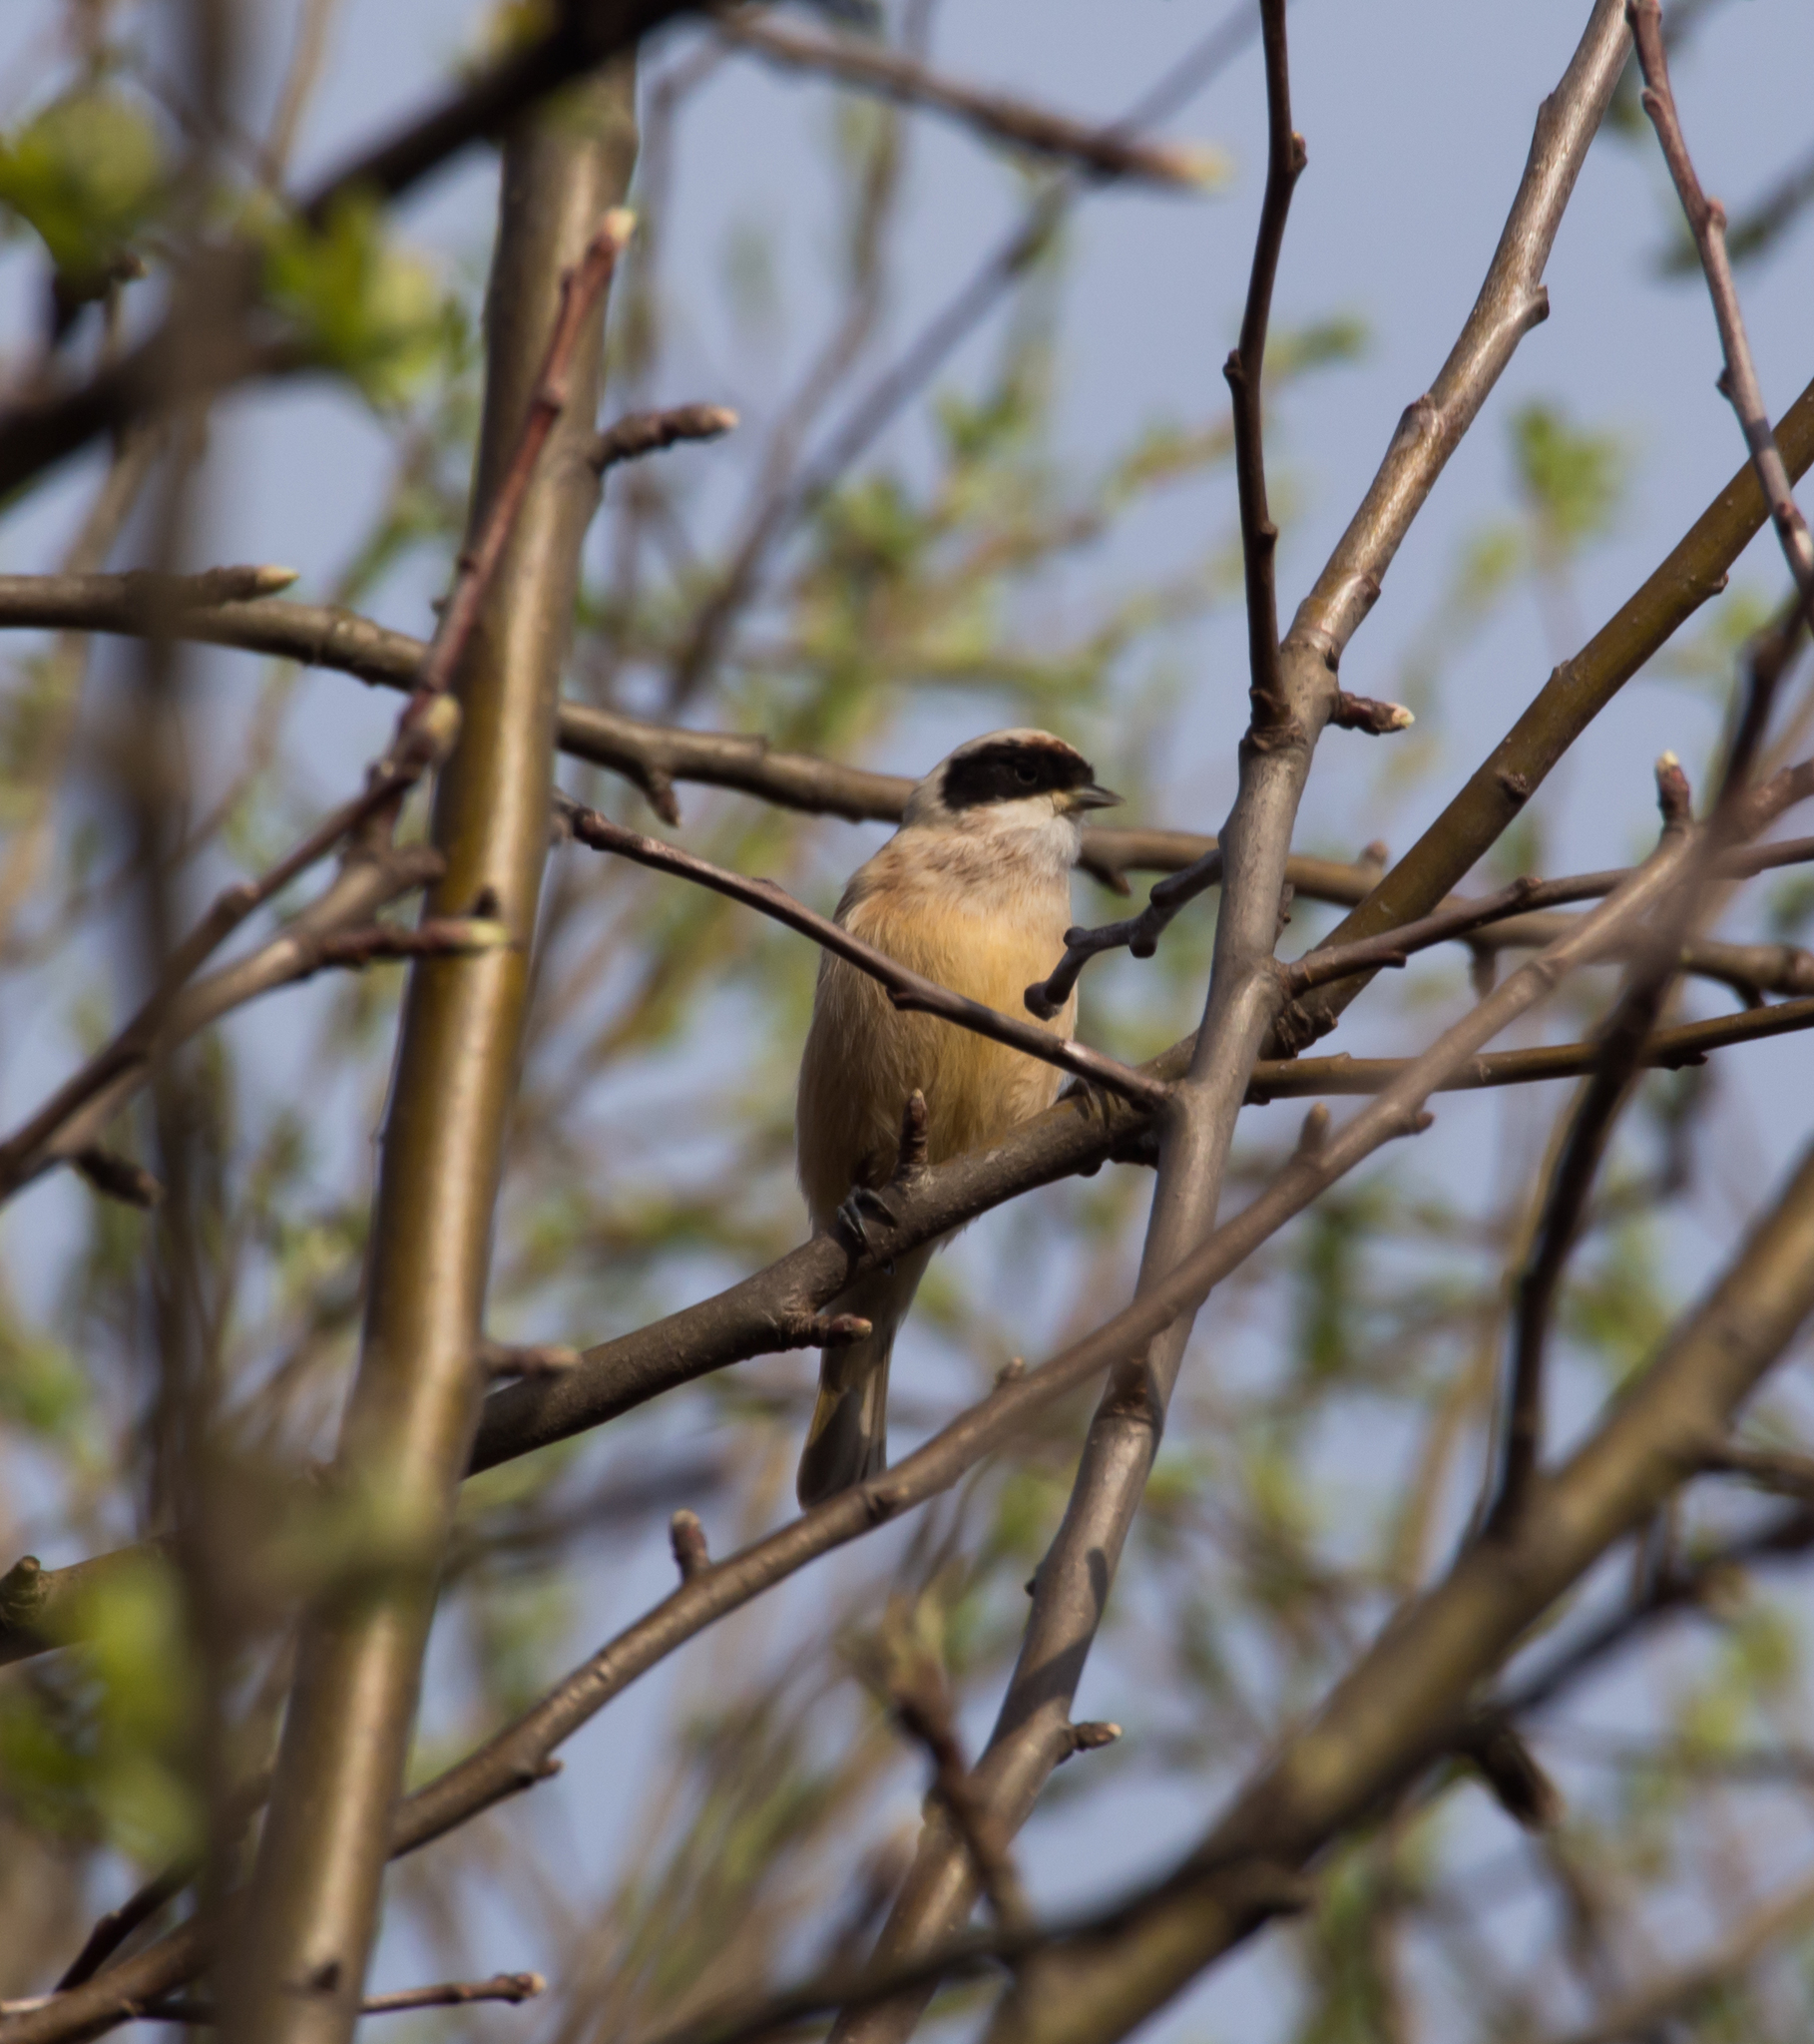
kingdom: Animalia
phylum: Chordata
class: Aves
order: Passeriformes
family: Remizidae
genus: Remiz
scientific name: Remiz pendulinus
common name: Eurasian penduline tit
